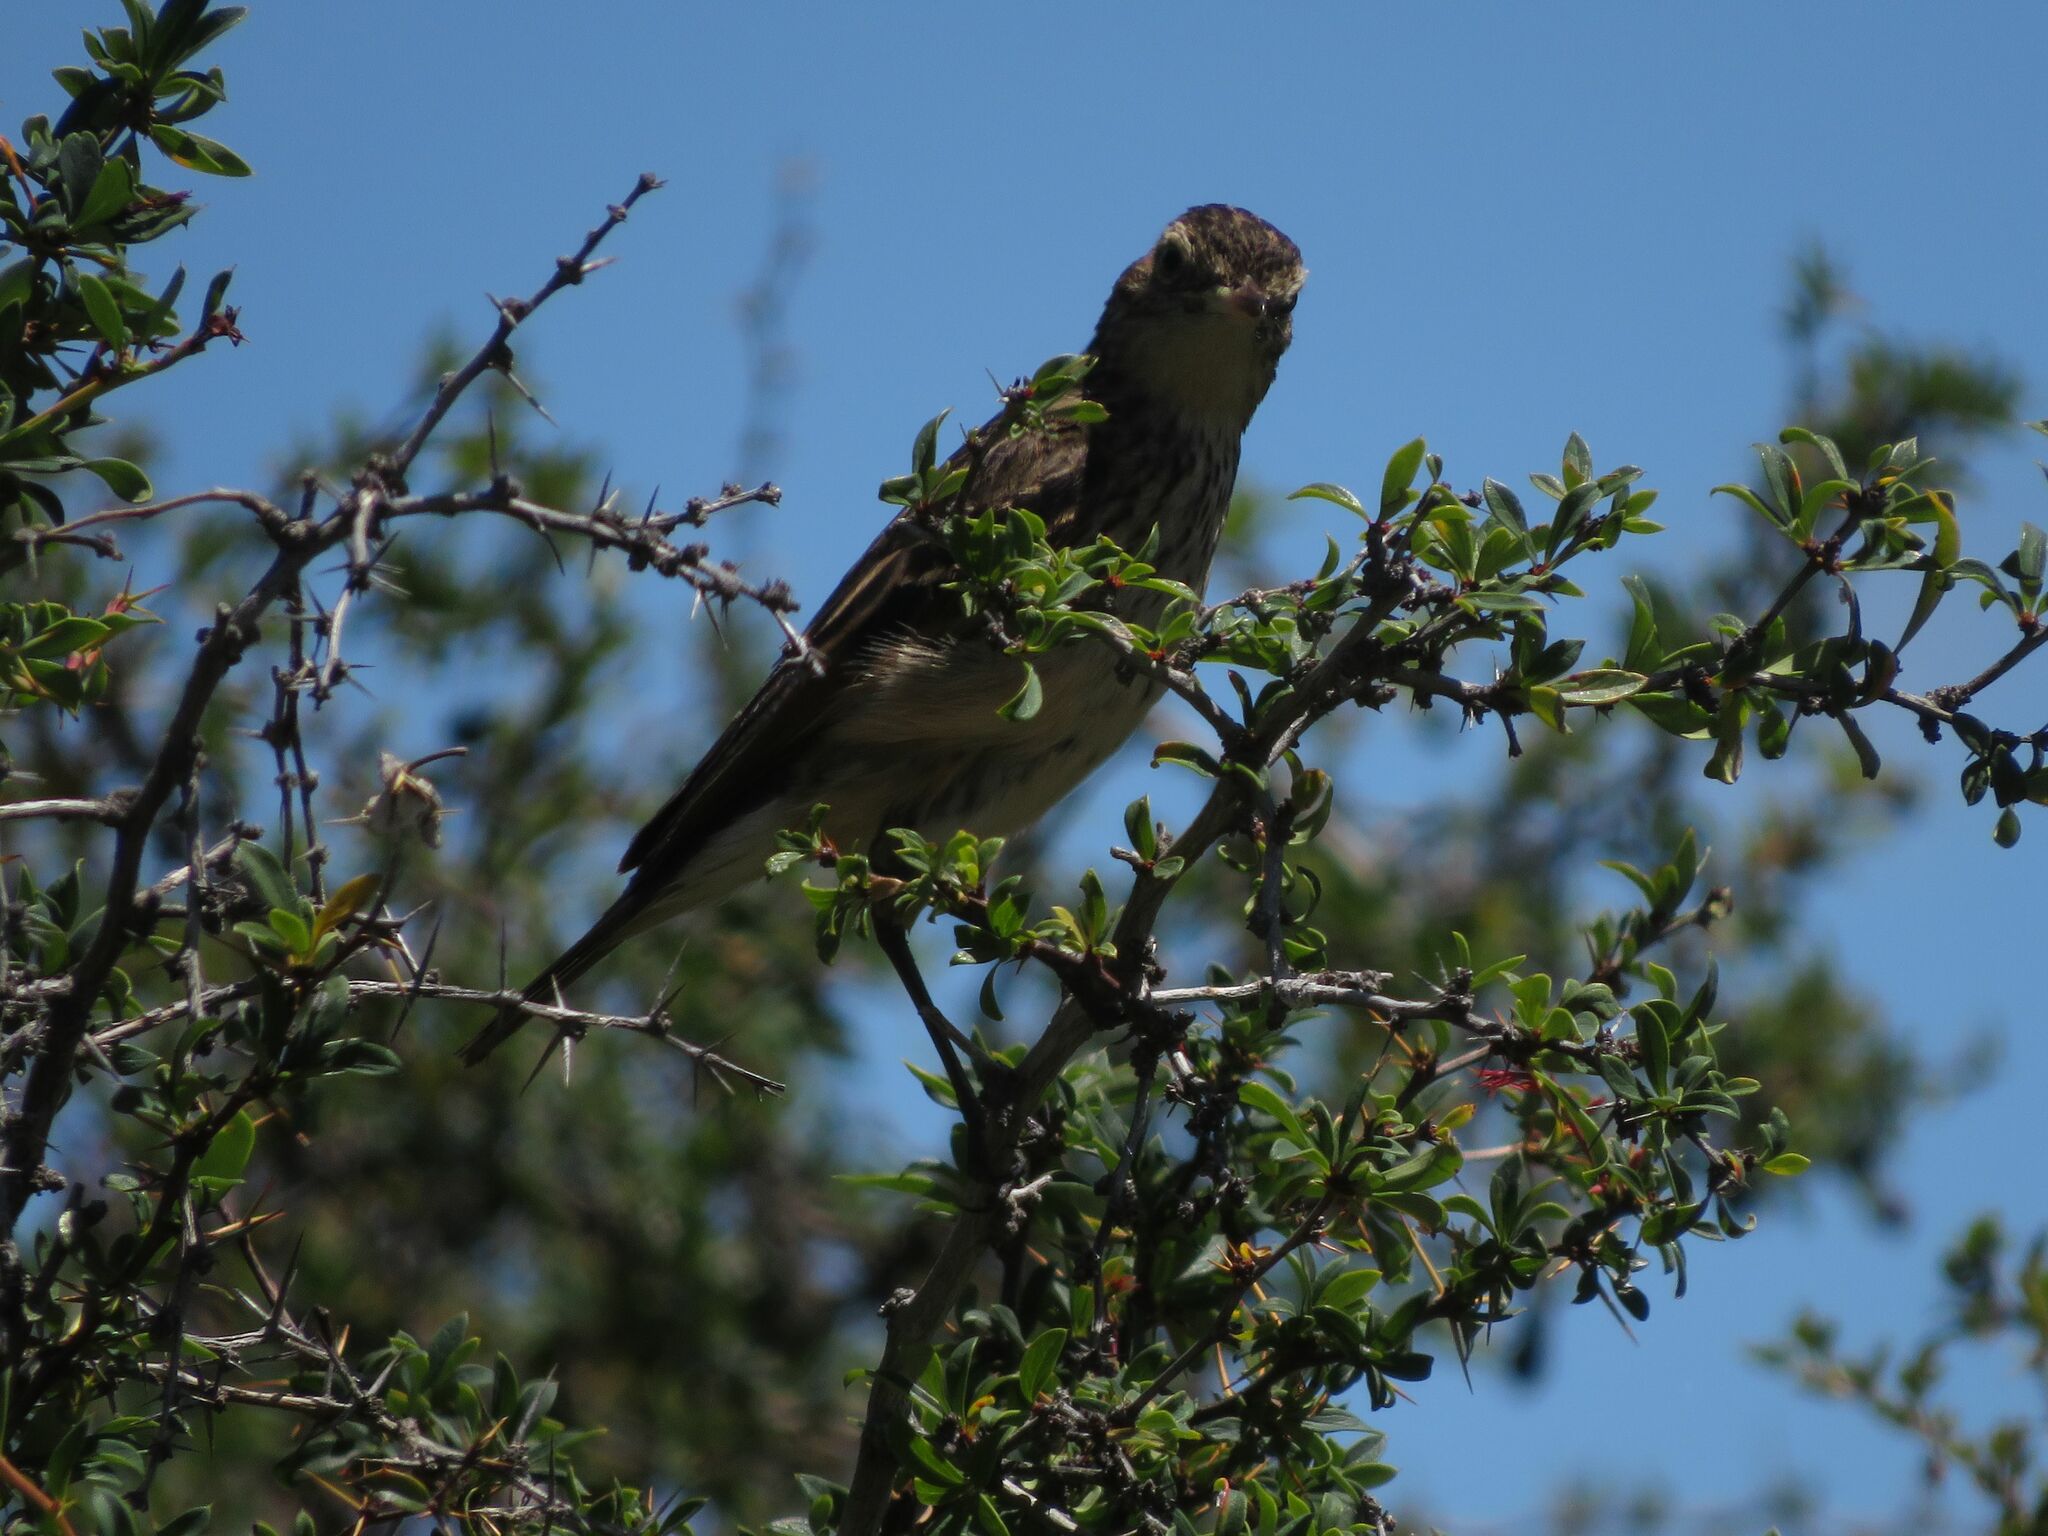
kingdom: Animalia
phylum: Chordata
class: Aves
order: Passeriformes
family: Tyrannidae
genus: Hymenops
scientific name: Hymenops perspicillatus
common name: Spectacled tyrant
